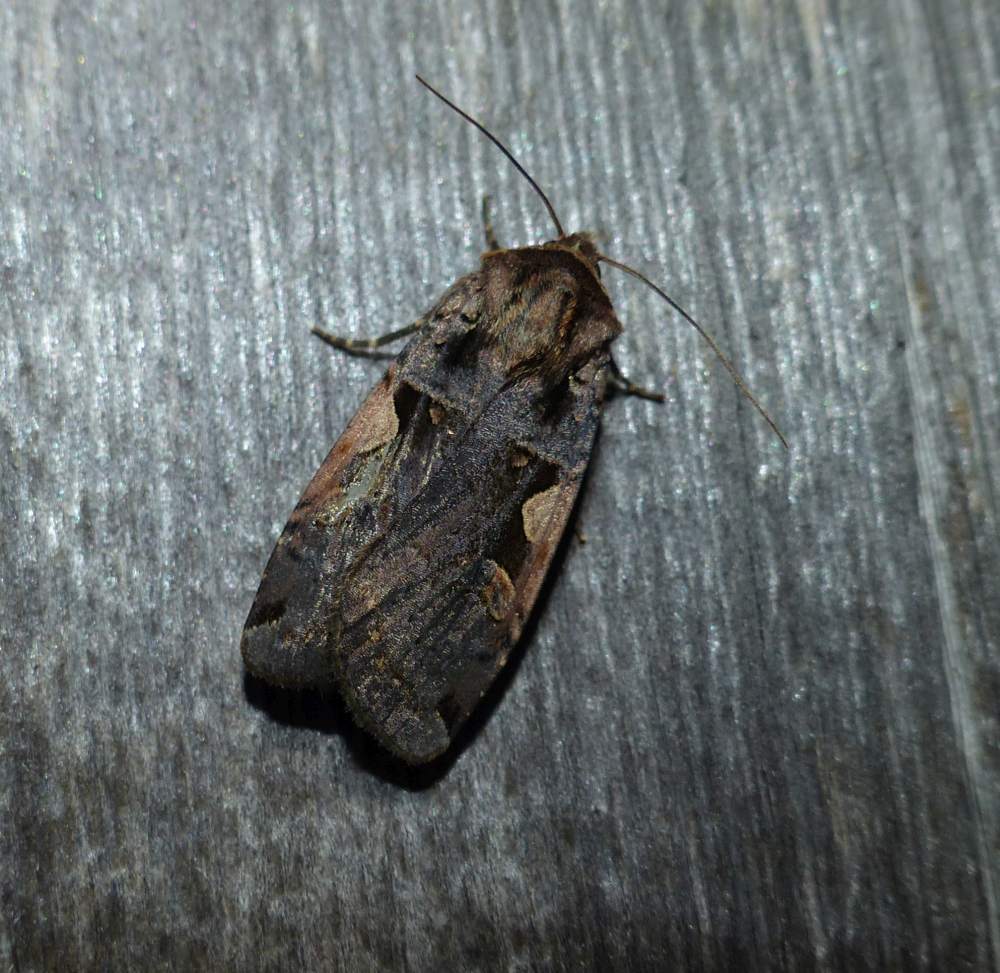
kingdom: Animalia
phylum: Arthropoda
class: Insecta
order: Lepidoptera
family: Noctuidae
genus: Xestia
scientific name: Xestia
